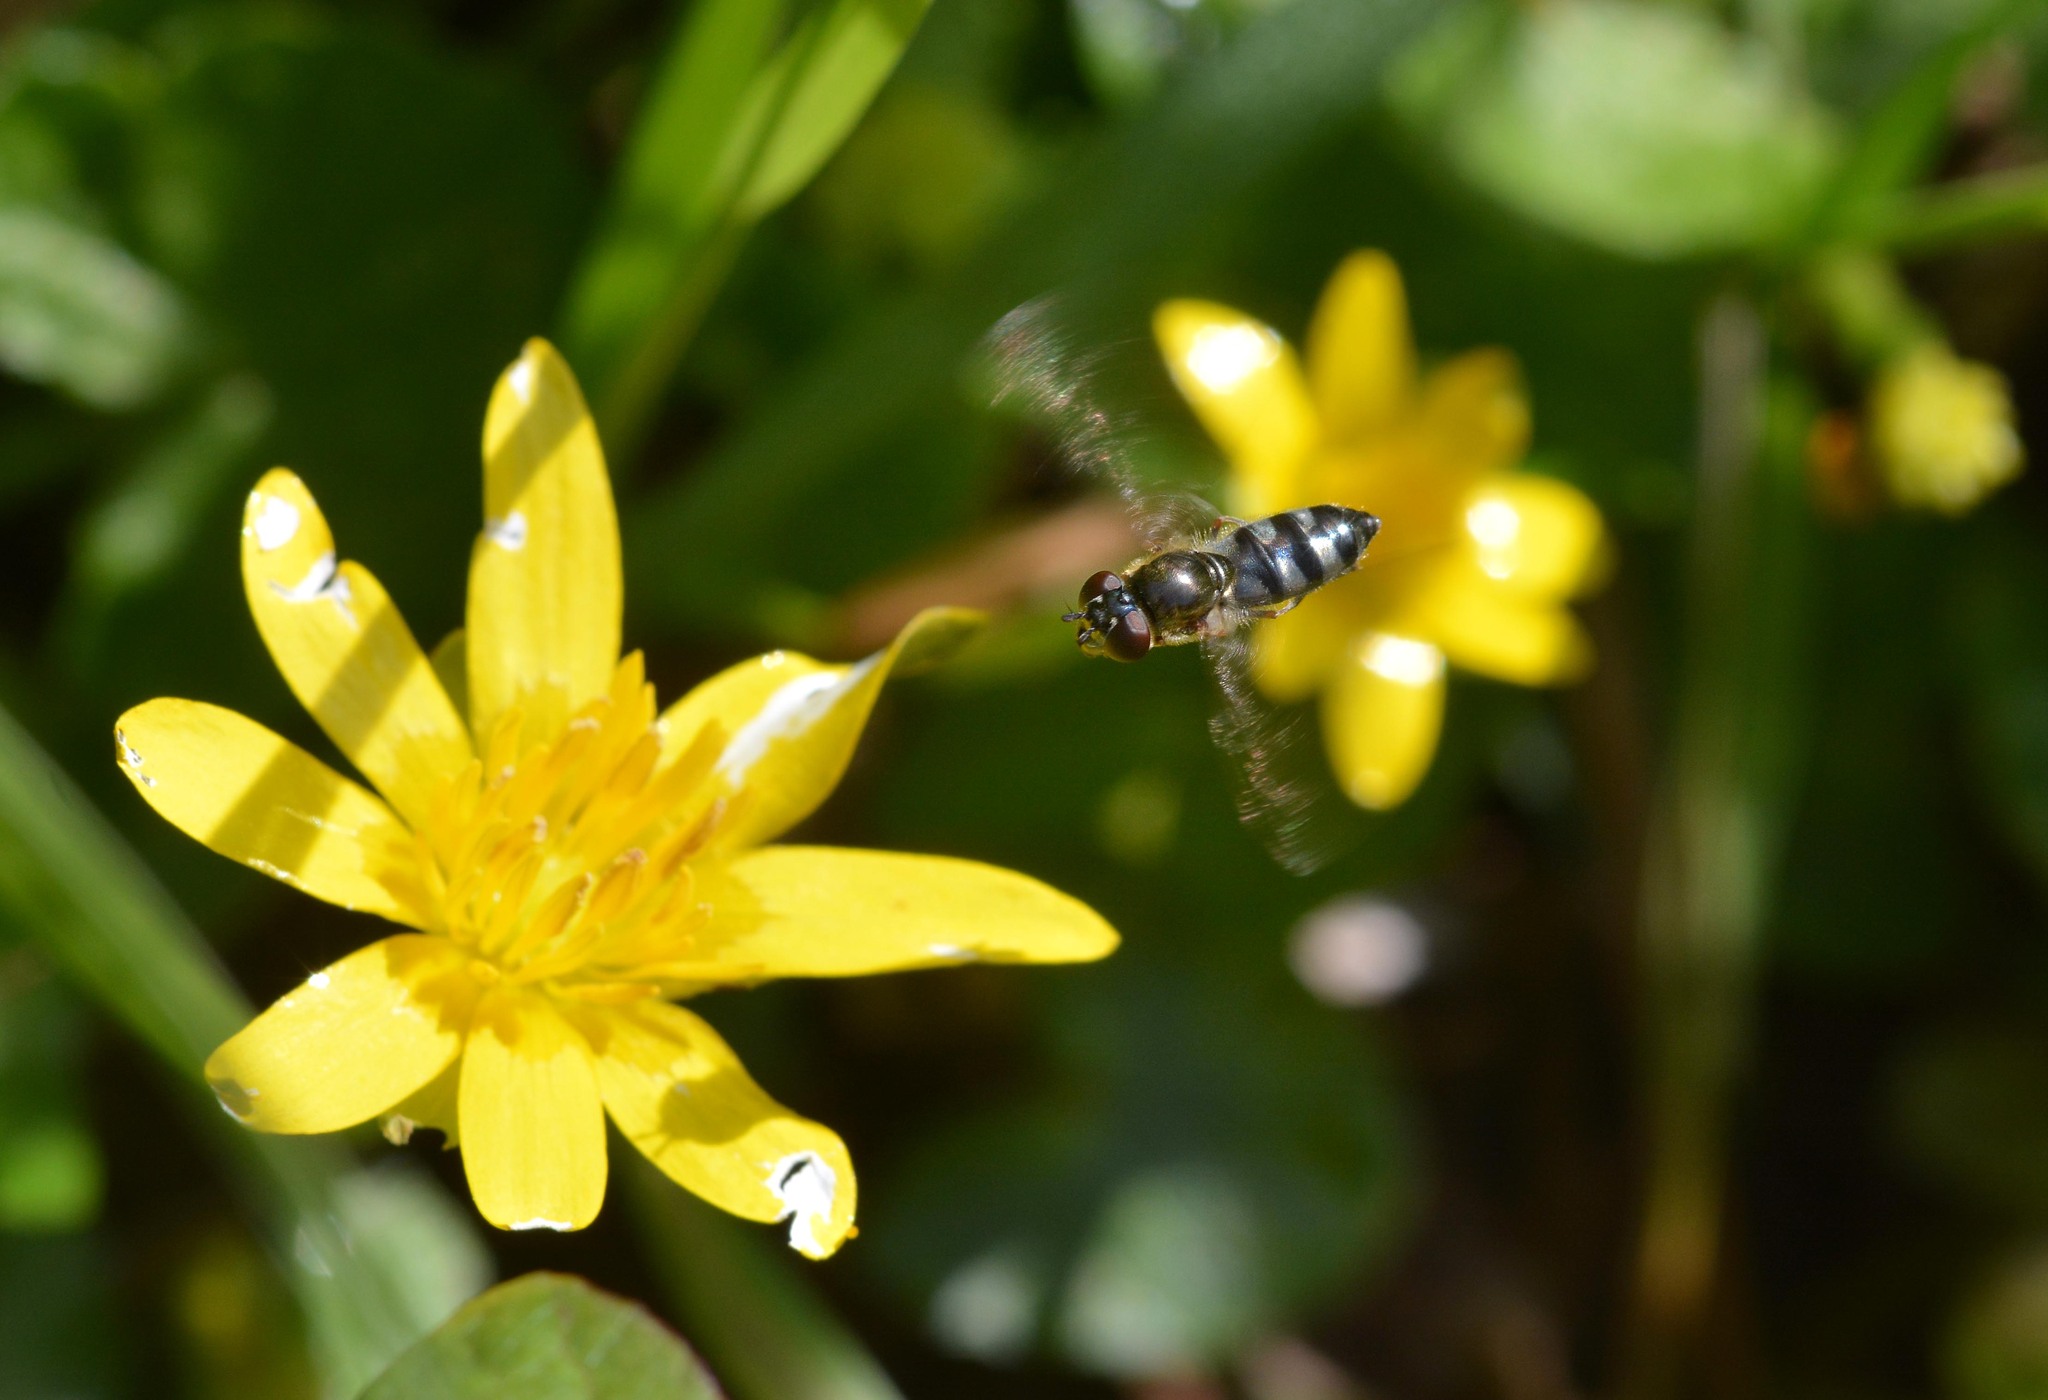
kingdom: Animalia
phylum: Arthropoda
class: Insecta
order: Diptera
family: Syrphidae
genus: Platycheirus
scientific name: Platycheirus albimanus
